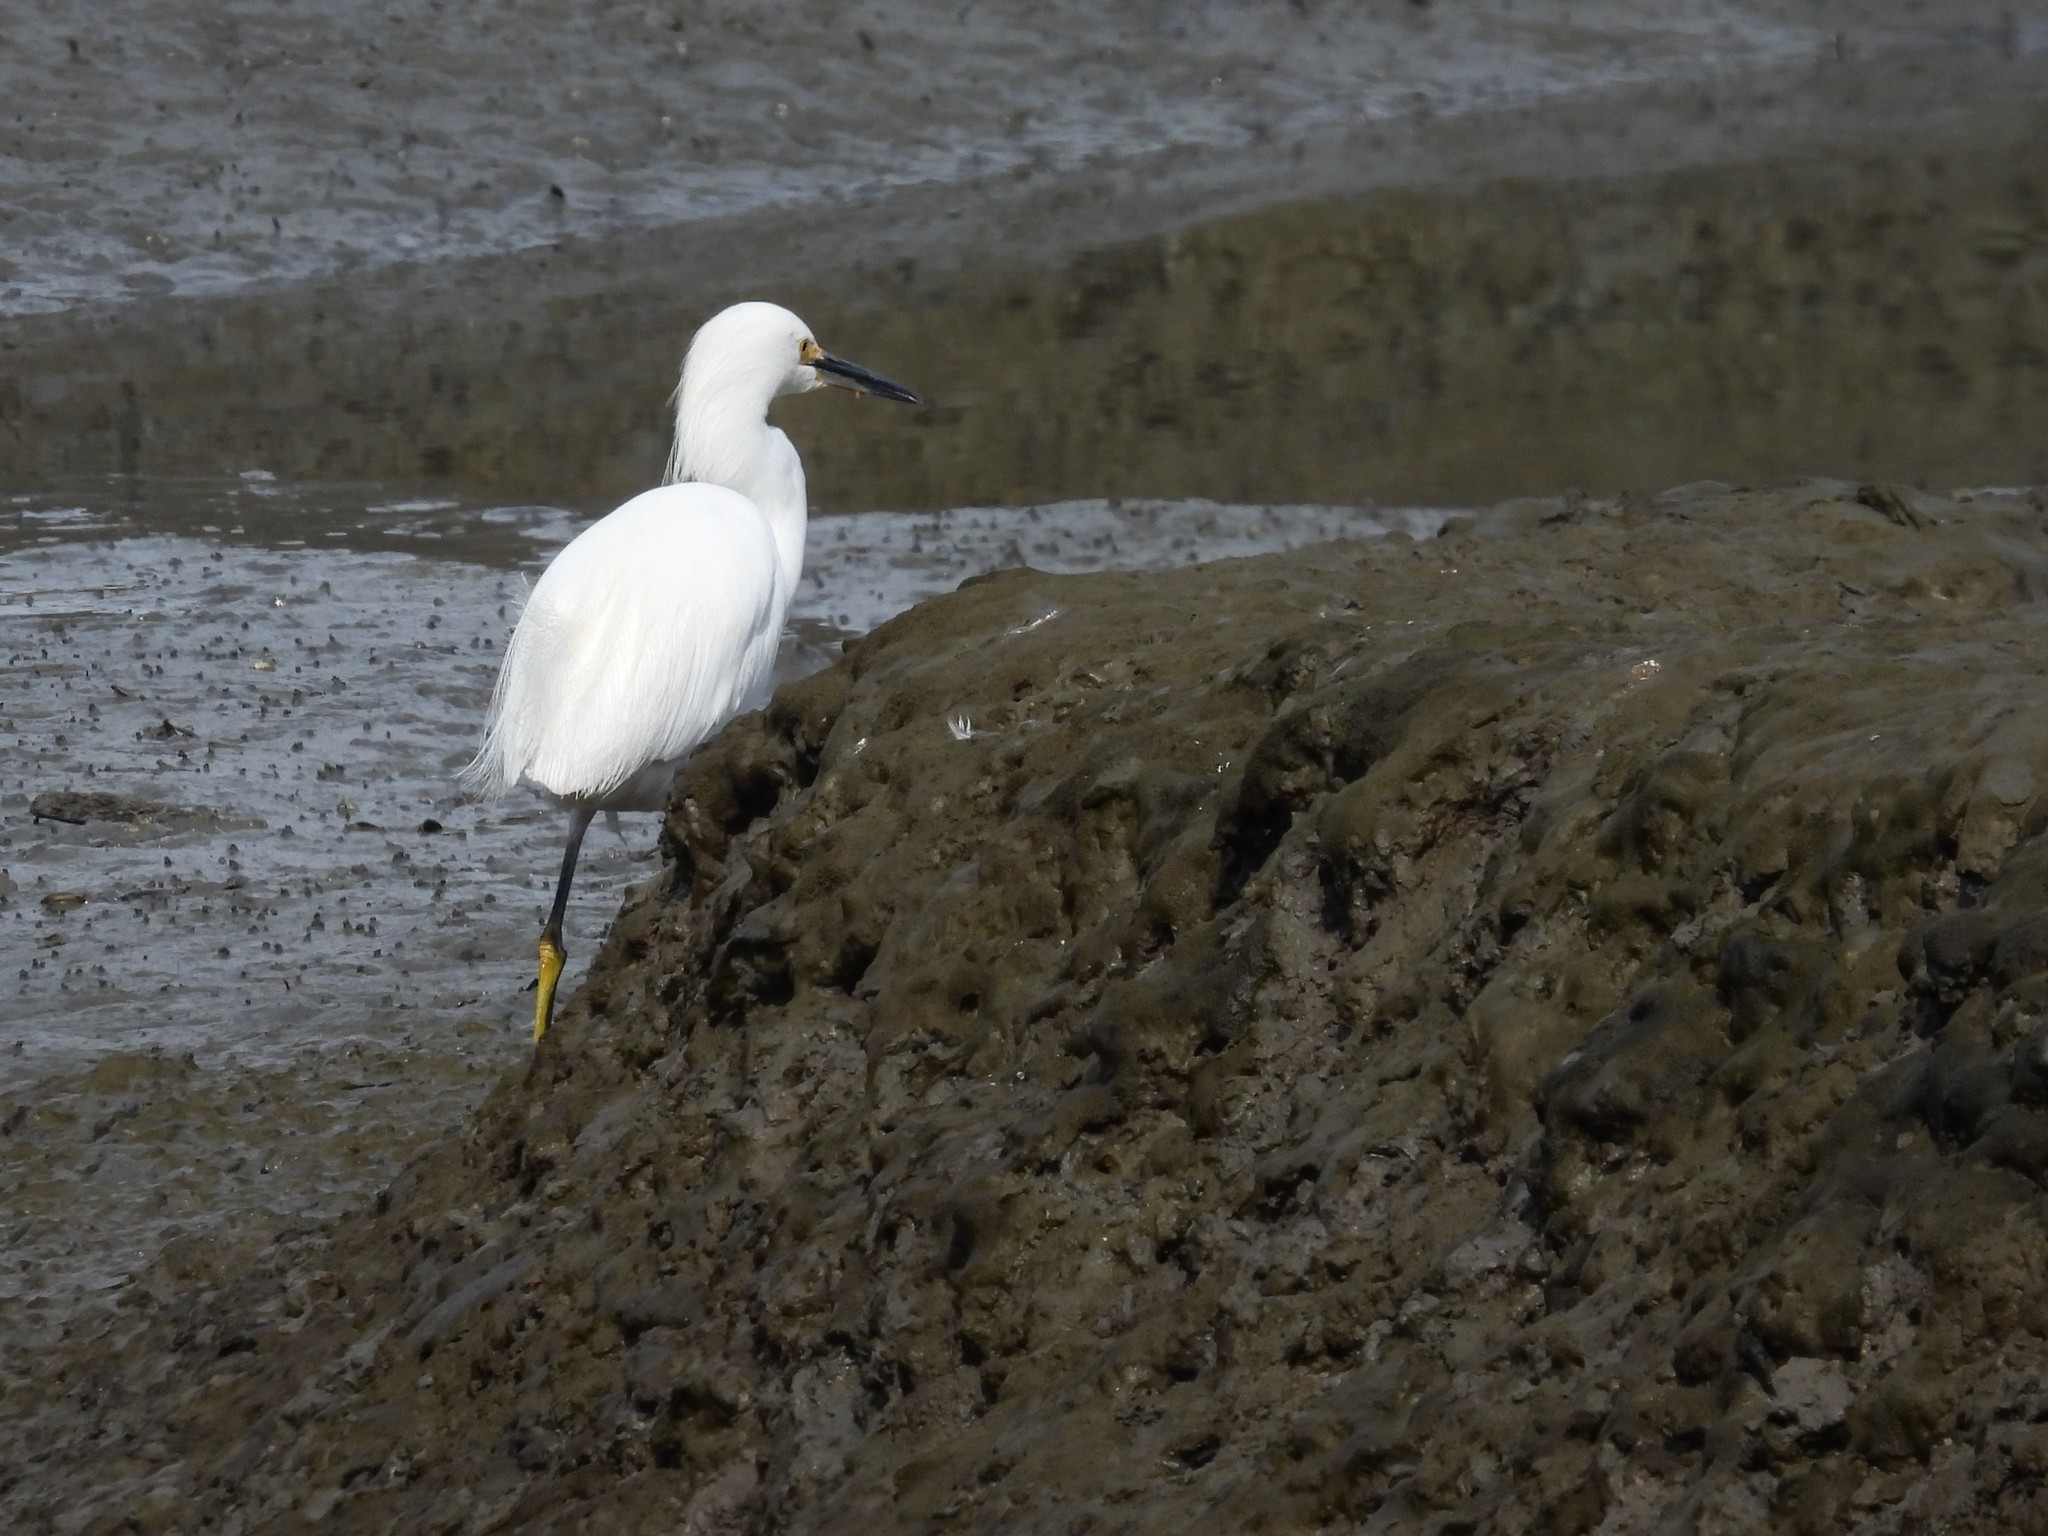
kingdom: Animalia
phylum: Chordata
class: Aves
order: Pelecaniformes
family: Ardeidae
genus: Egretta
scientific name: Egretta thula
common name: Snowy egret
